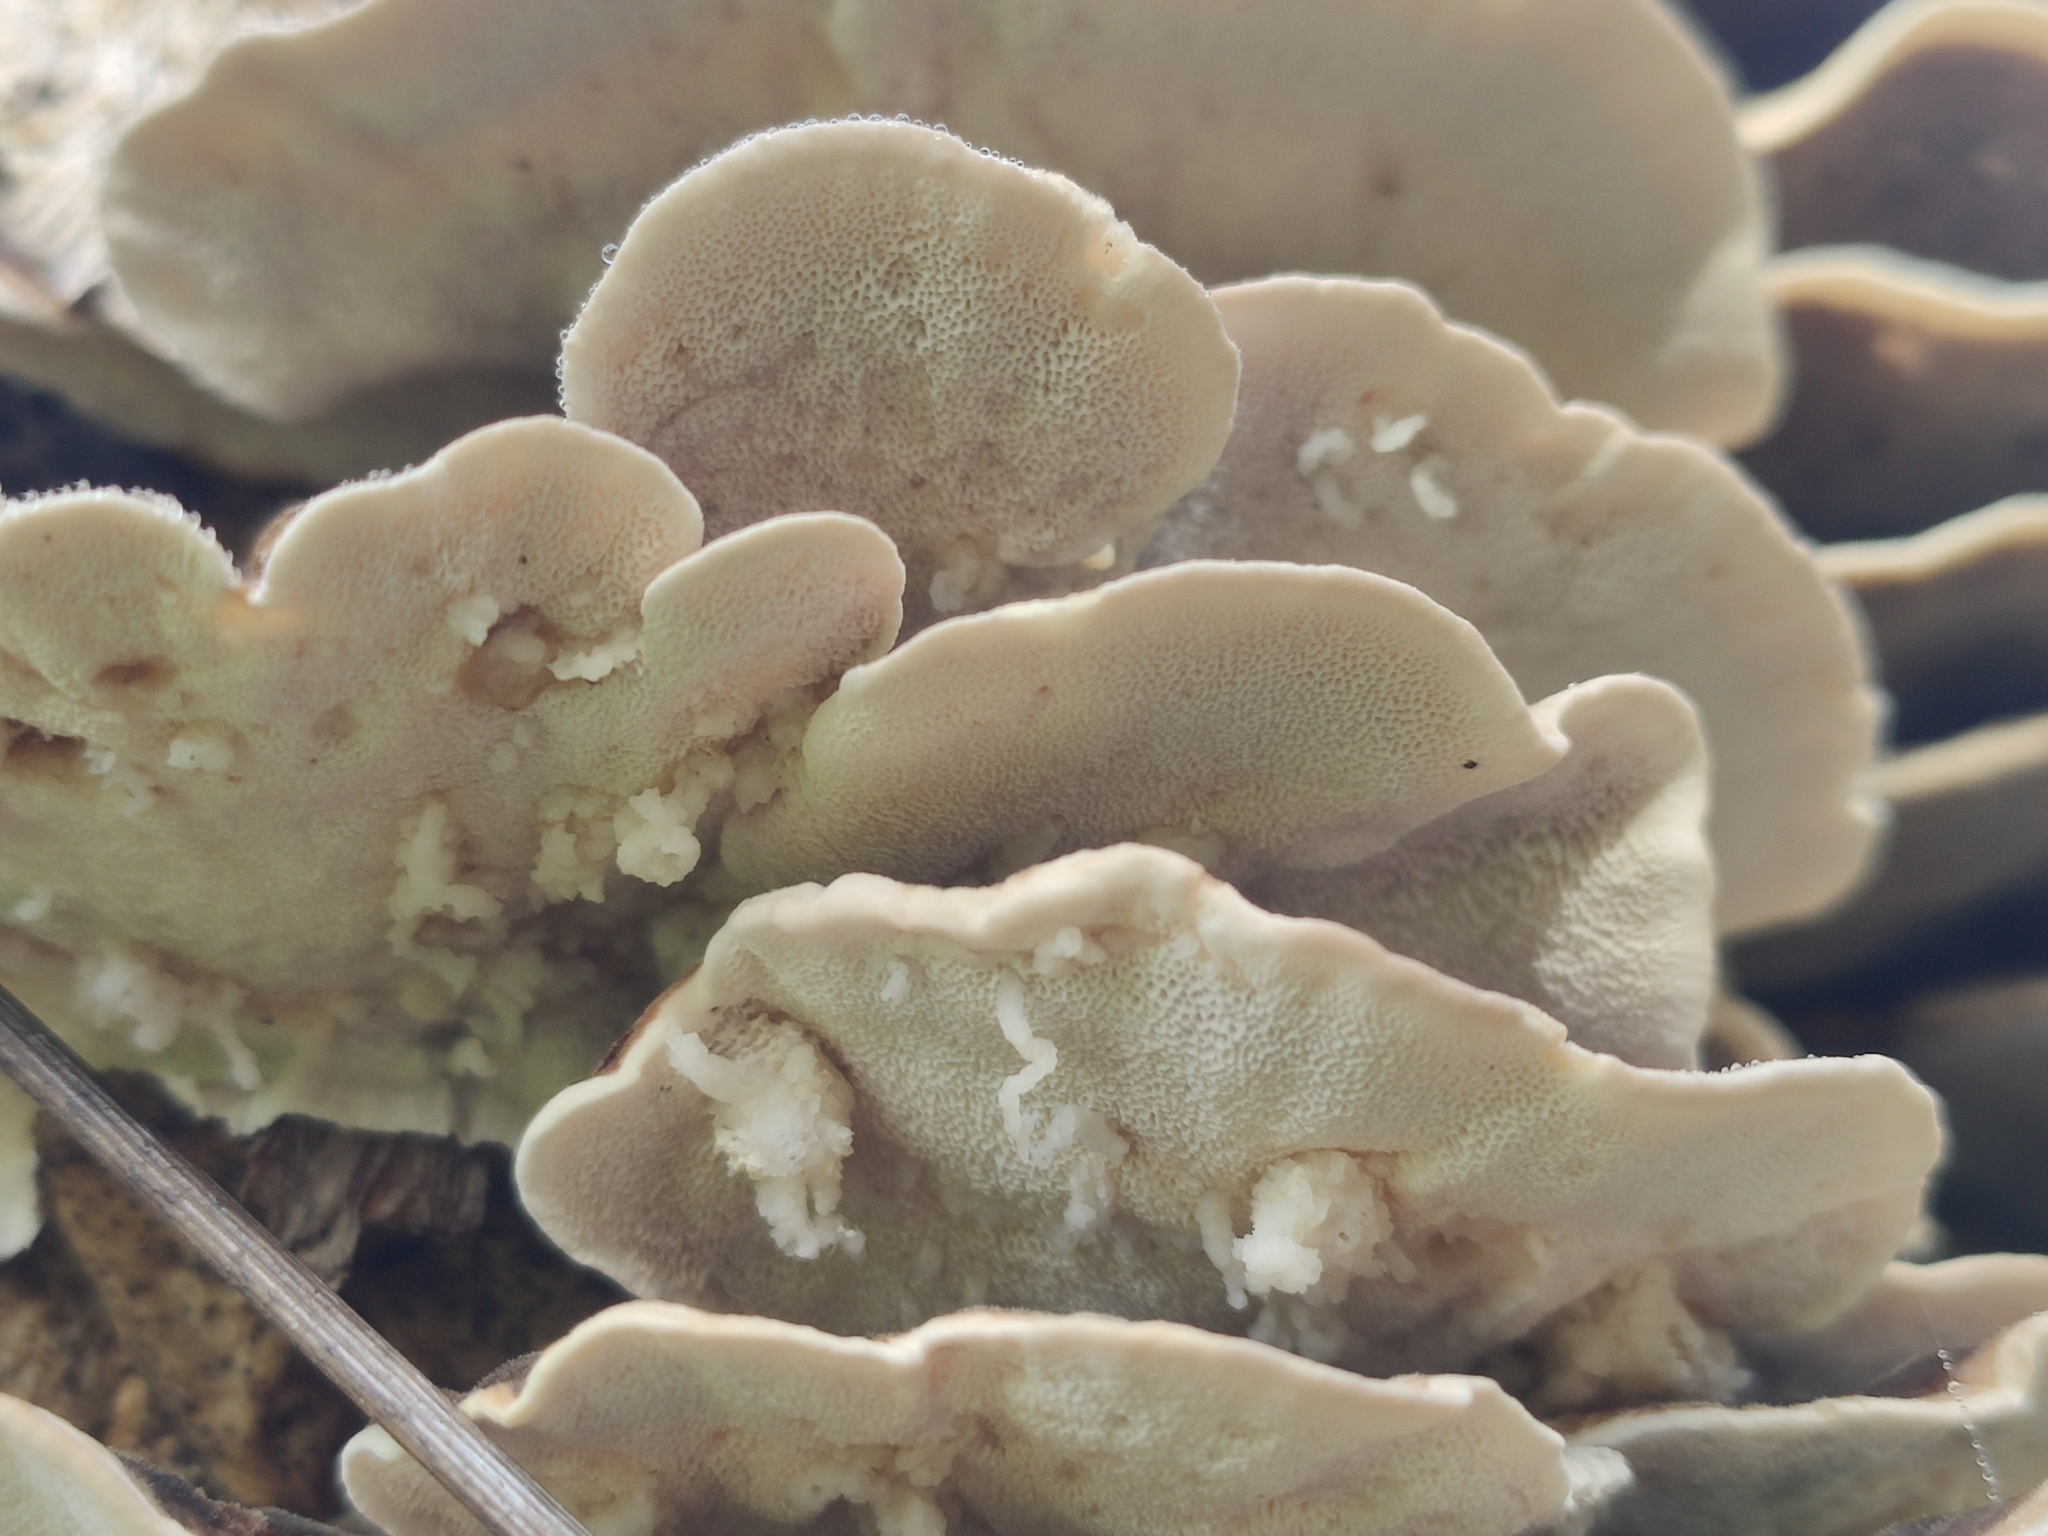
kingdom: Fungi
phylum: Basidiomycota
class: Agaricomycetes
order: Polyporales
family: Polyporaceae
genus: Trametes
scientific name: Trametes versicolor
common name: Turkeytail
